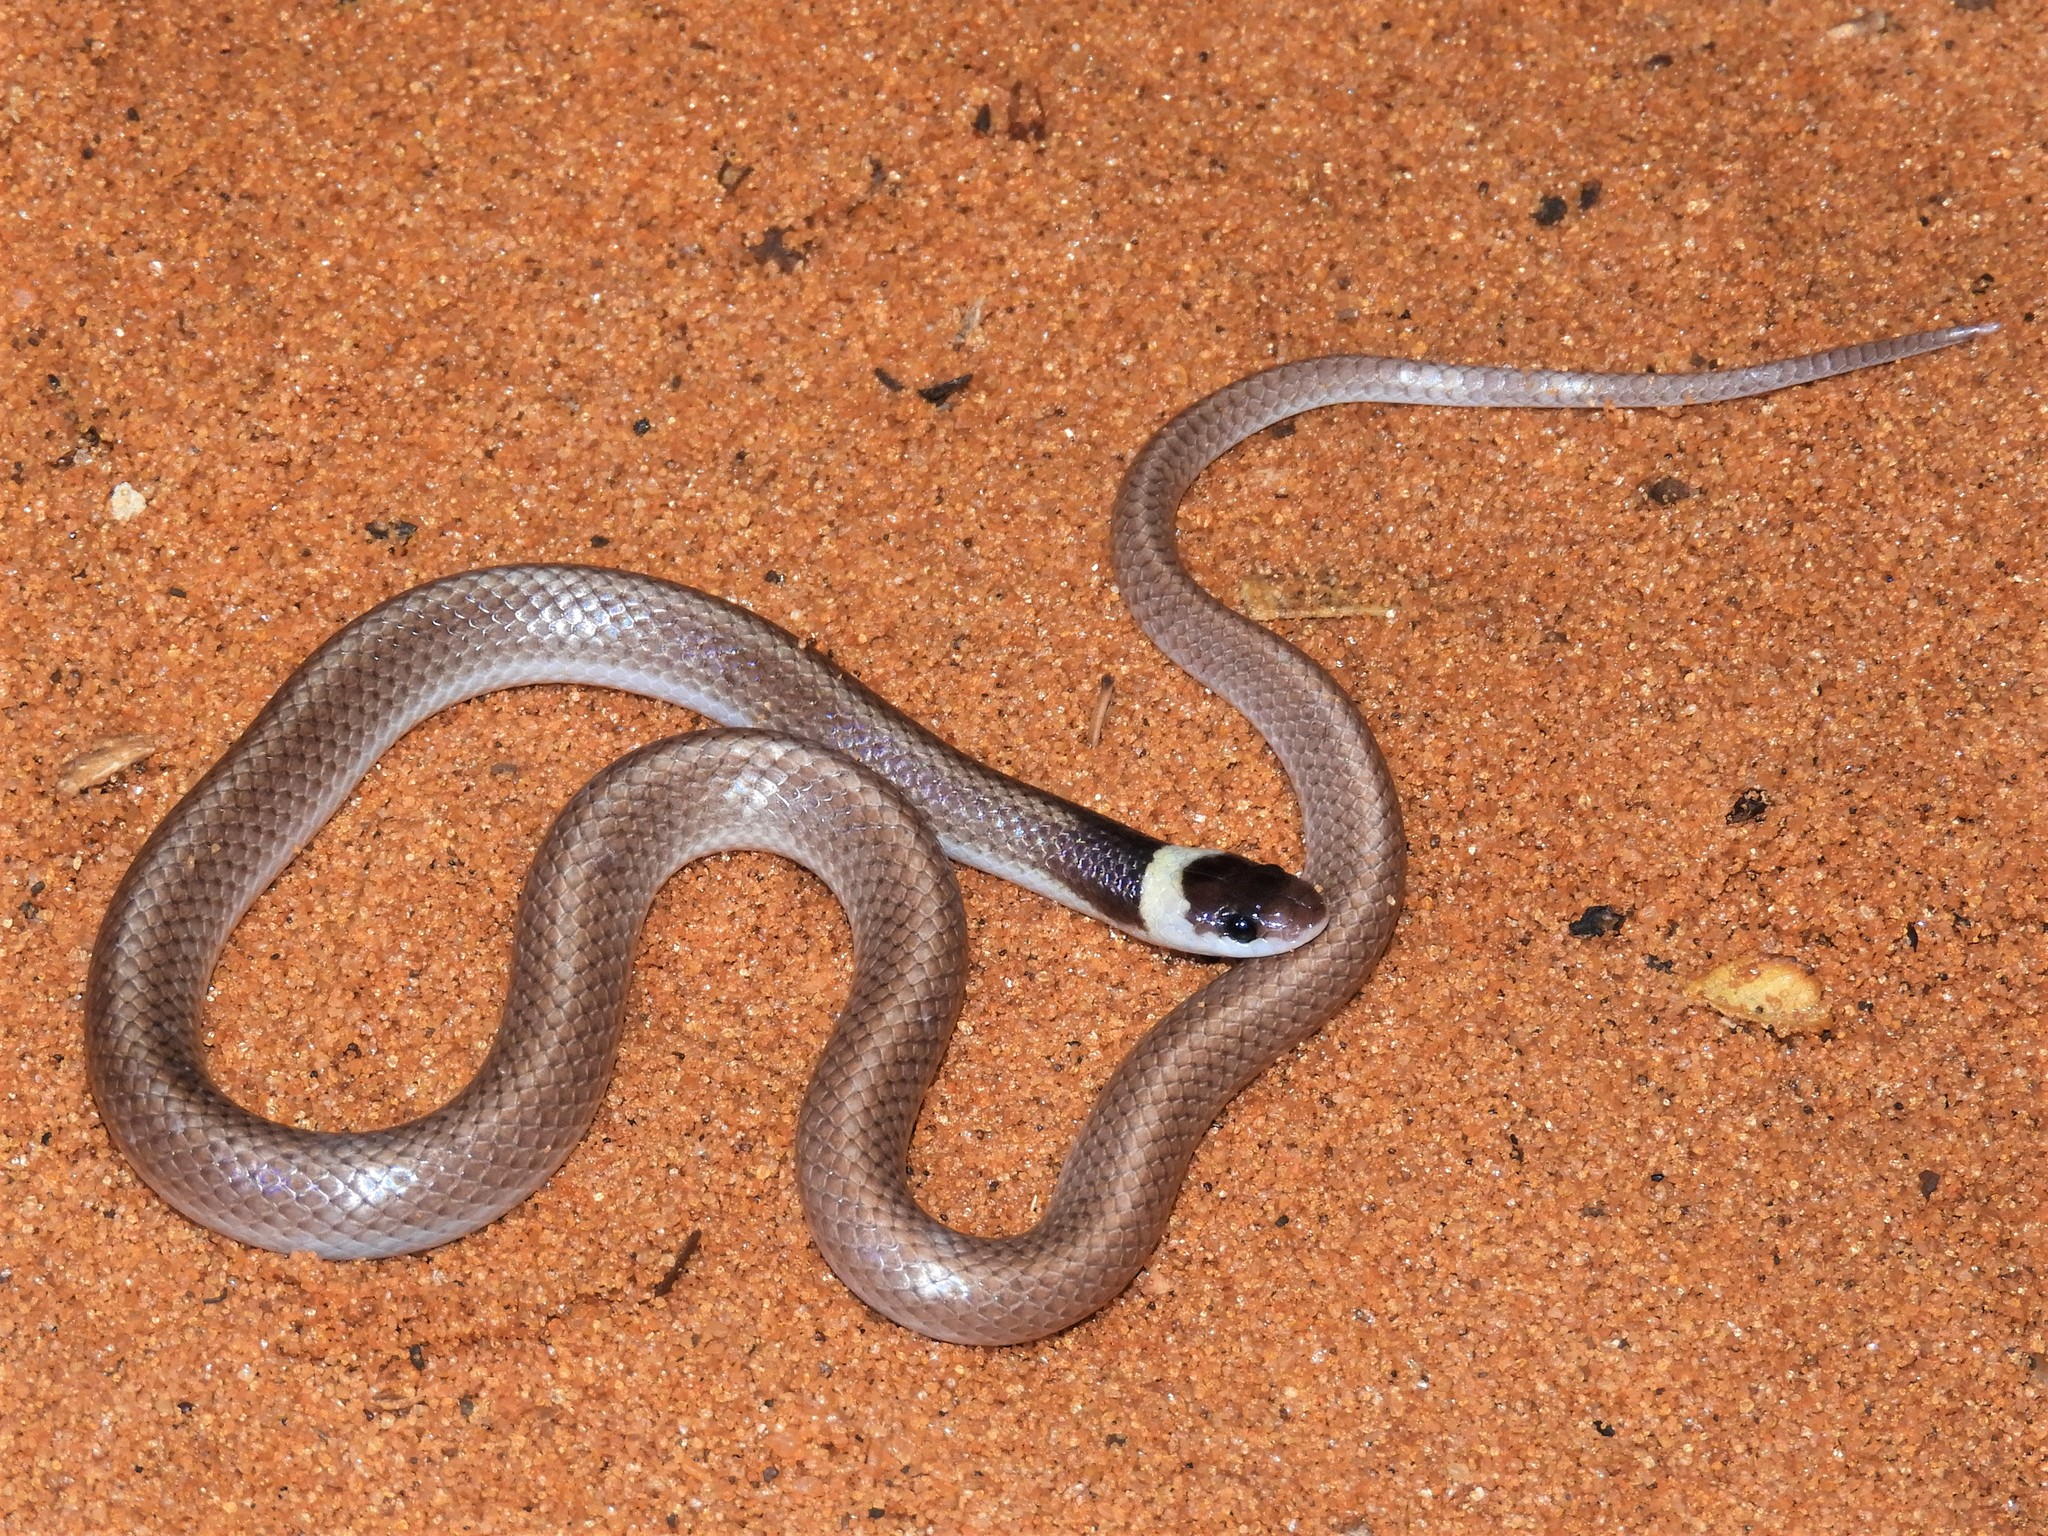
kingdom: Animalia
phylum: Chordata
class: Squamata
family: Pseudoxyrhophiidae
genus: Heteroliodon
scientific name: Heteroliodon occipitalis
